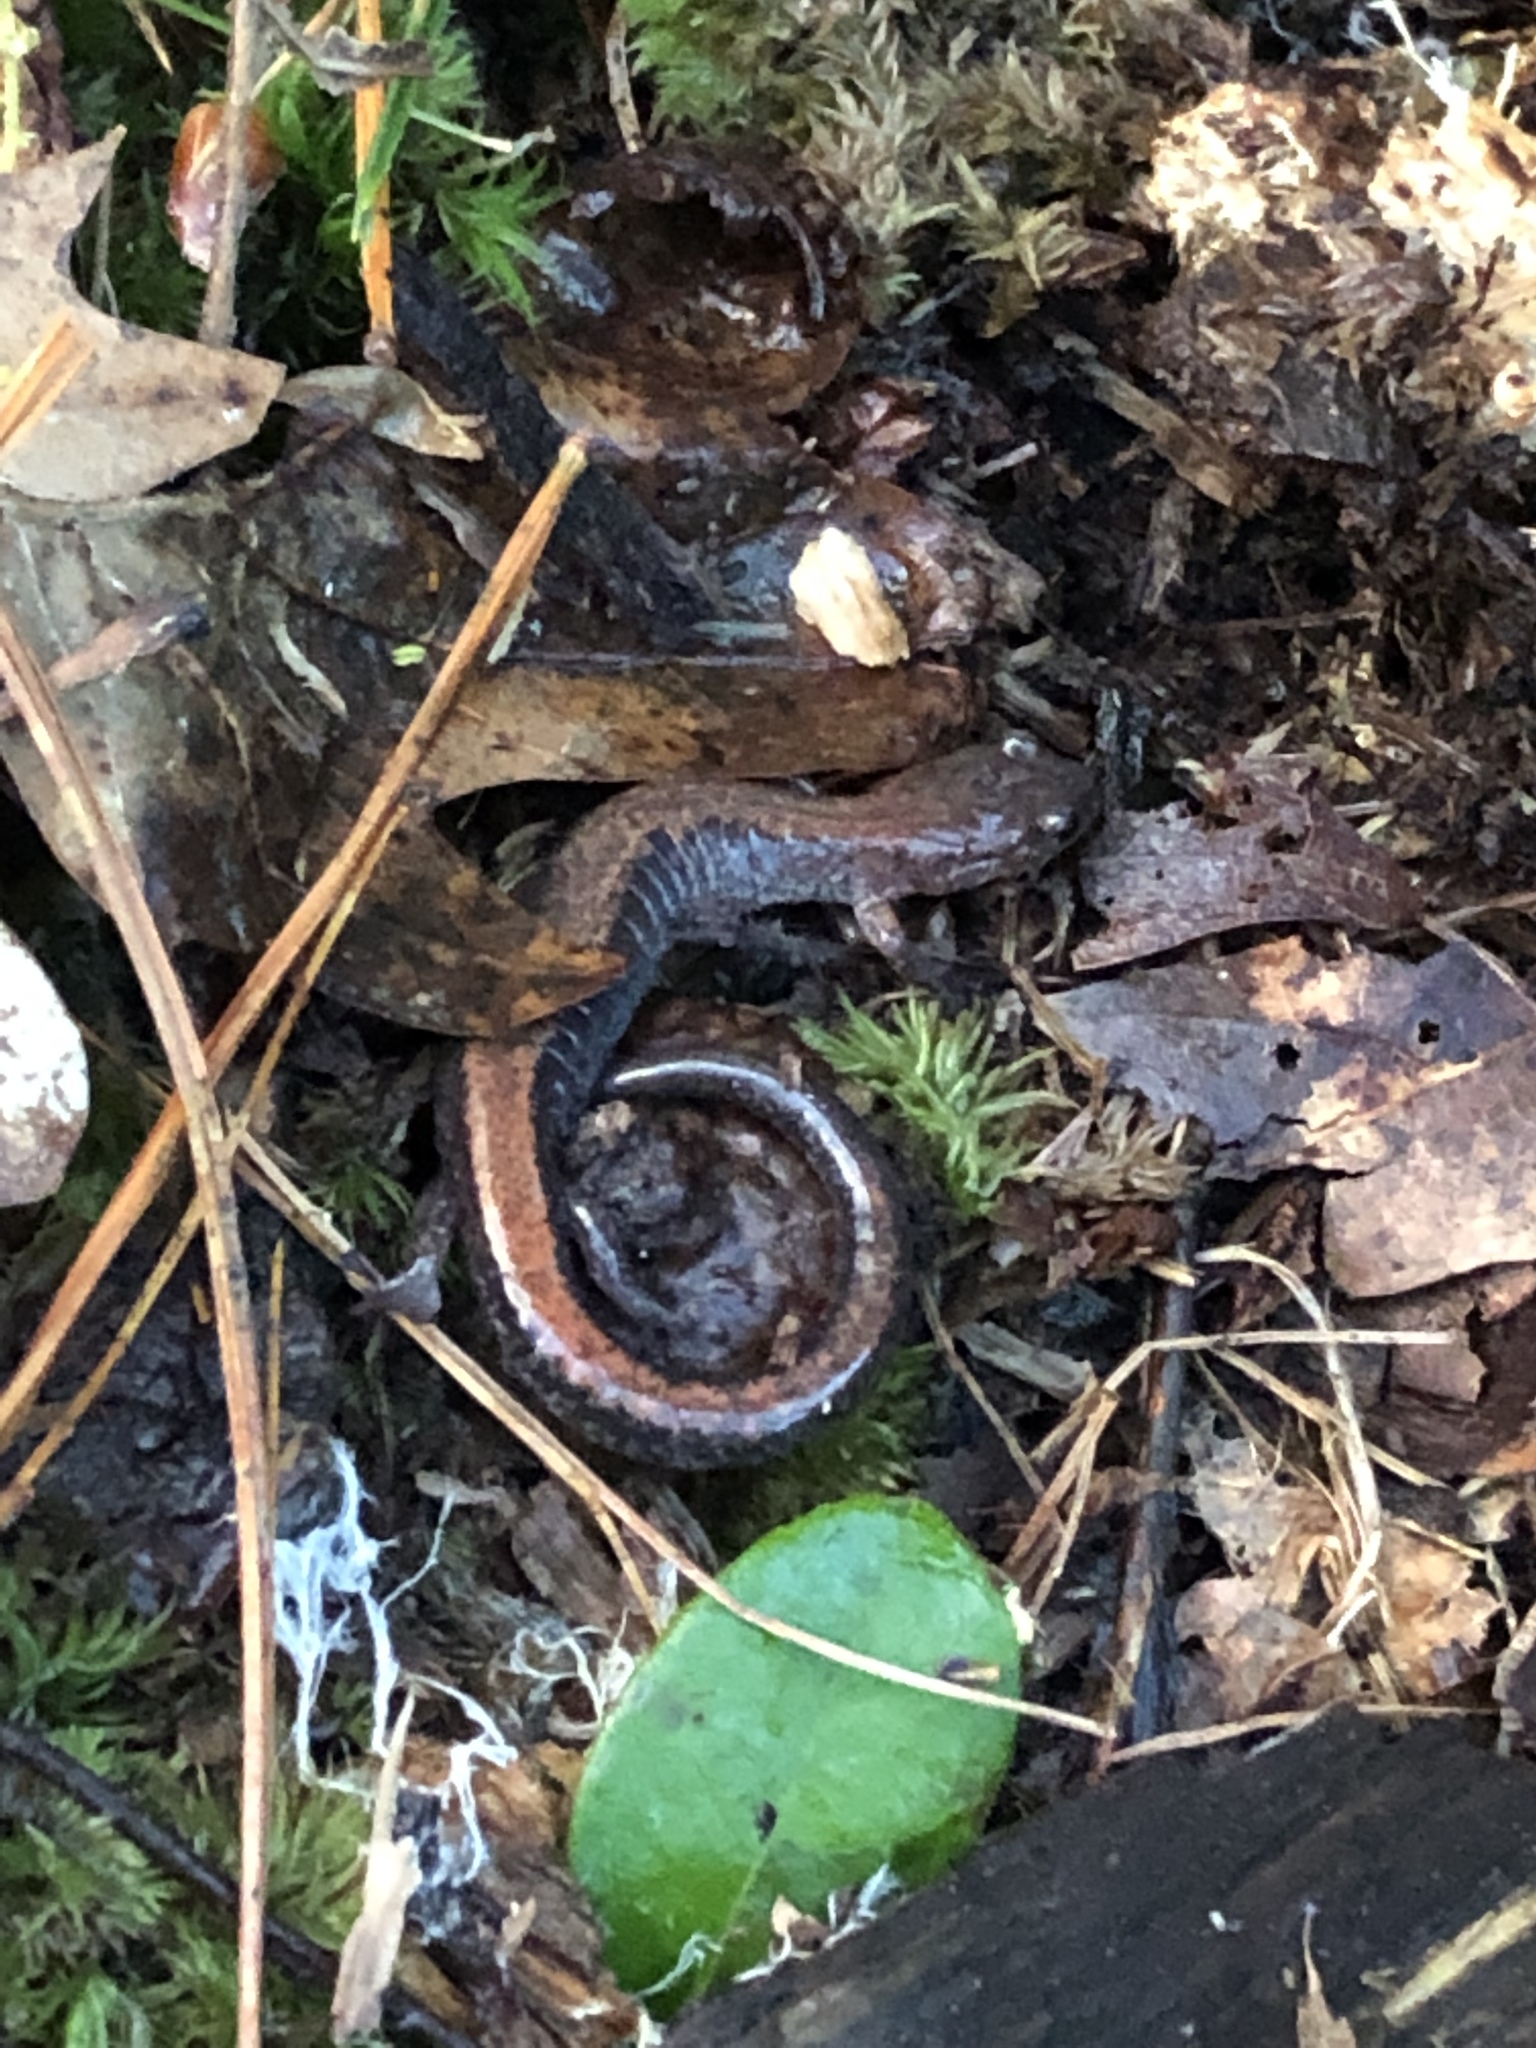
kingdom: Animalia
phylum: Chordata
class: Amphibia
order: Caudata
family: Plethodontidae
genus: Plethodon
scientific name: Plethodon cinereus
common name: Redback salamander
